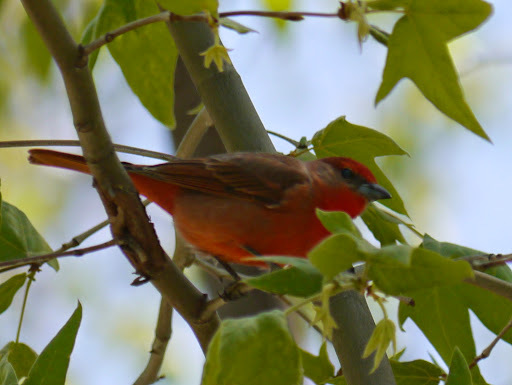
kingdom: Animalia
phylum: Chordata
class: Aves
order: Passeriformes
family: Cardinalidae
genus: Piranga
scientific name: Piranga flava
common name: Red tanager
